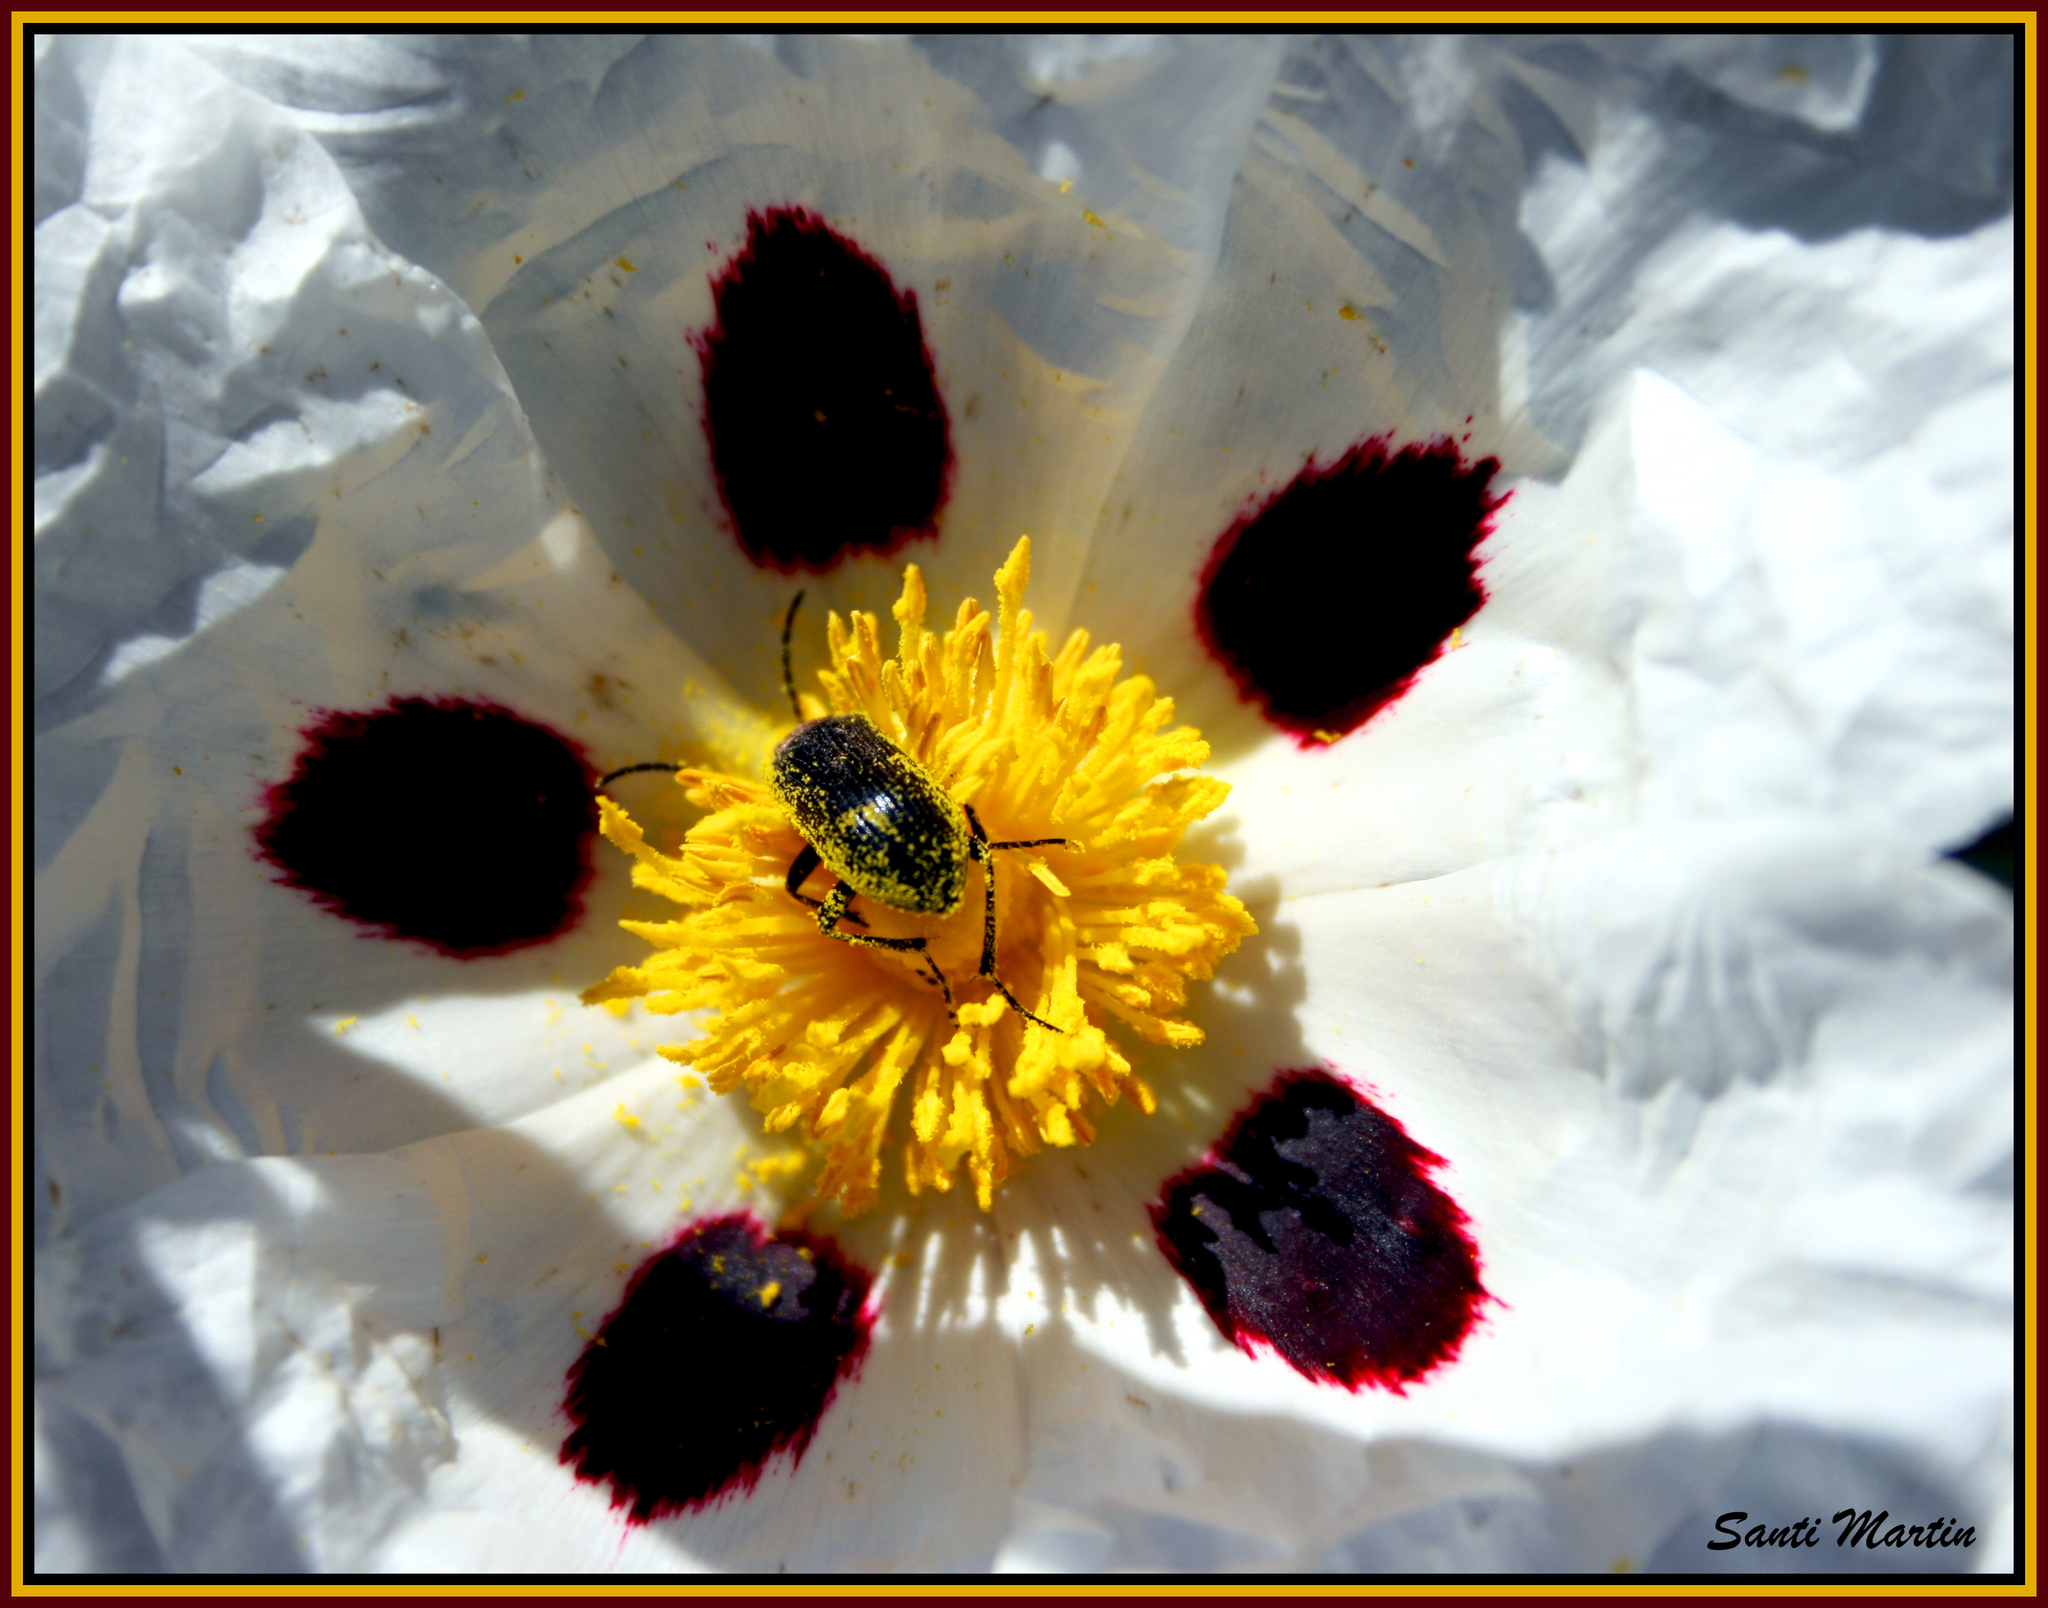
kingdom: Plantae
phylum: Tracheophyta
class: Magnoliopsida
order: Malvales
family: Cistaceae
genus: Cistus
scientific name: Cistus ladanifer
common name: Common gum cistus
